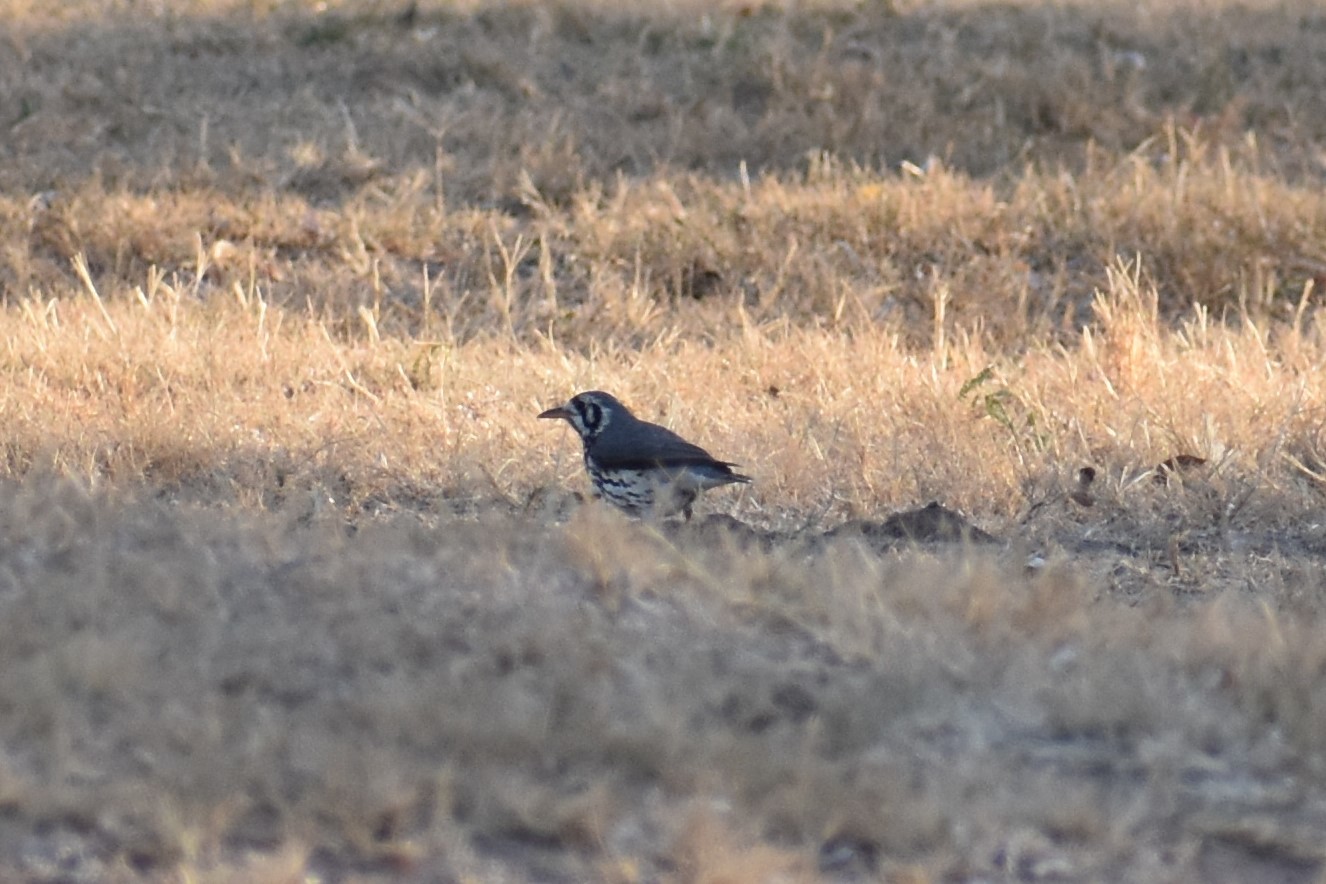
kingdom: Animalia
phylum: Chordata
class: Aves
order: Passeriformes
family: Turdidae
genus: Psophocichla
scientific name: Psophocichla litsitsirupa
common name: Groundscraper thrush
